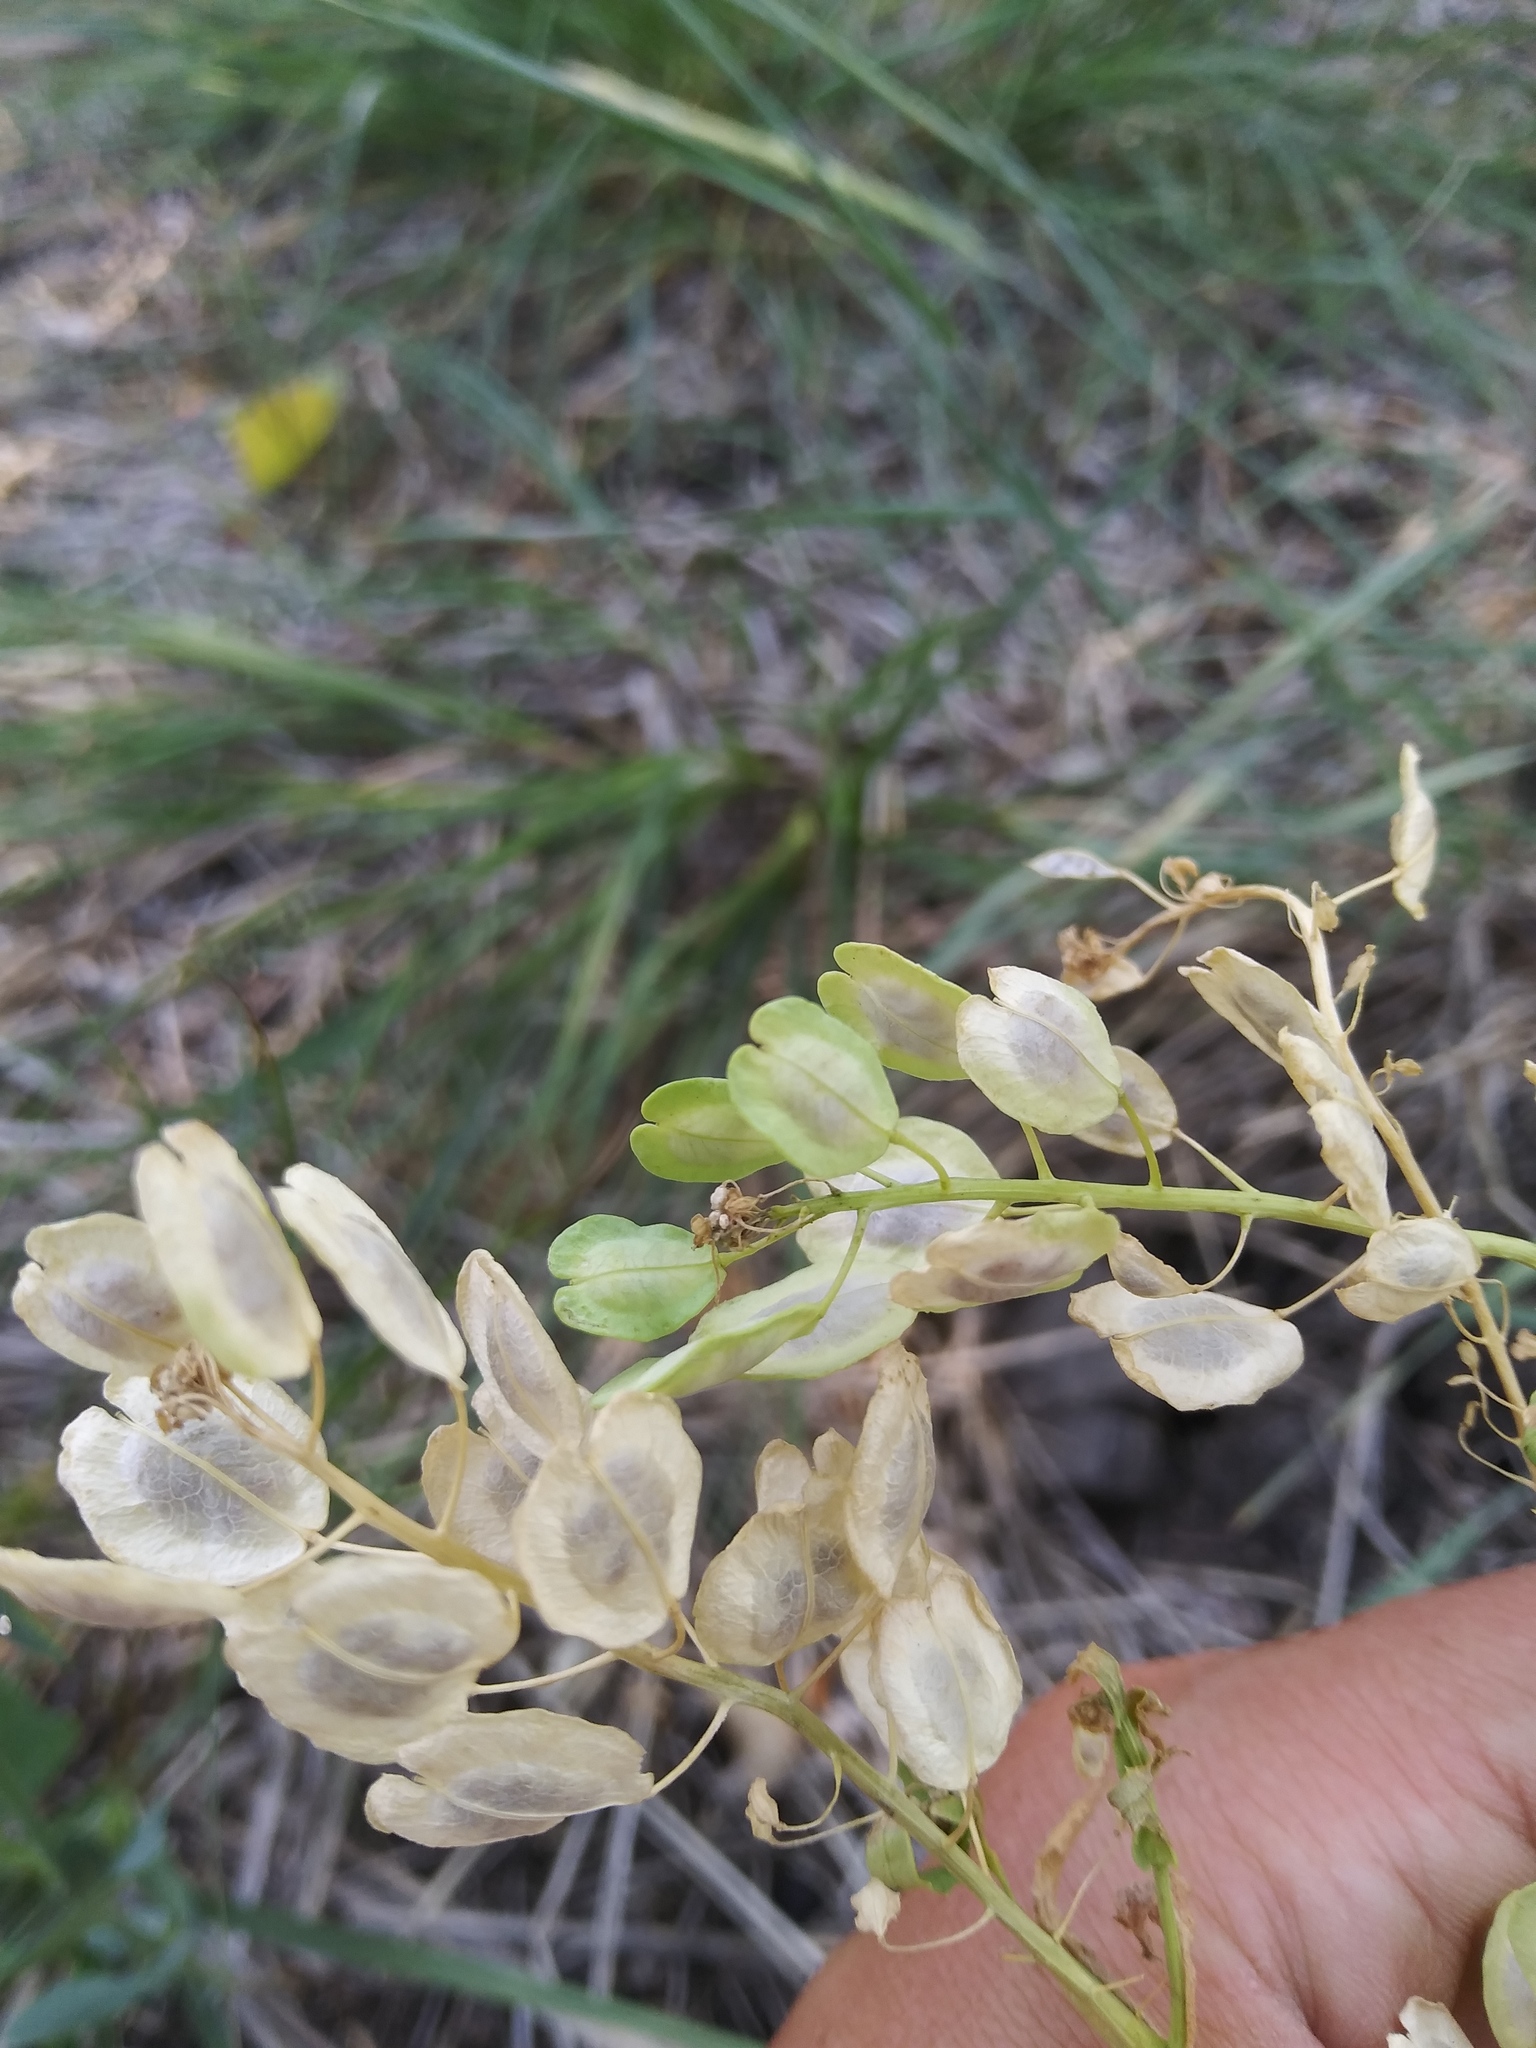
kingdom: Plantae
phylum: Tracheophyta
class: Magnoliopsida
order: Brassicales
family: Brassicaceae
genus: Thlaspi
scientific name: Thlaspi arvense
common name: Field pennycress
